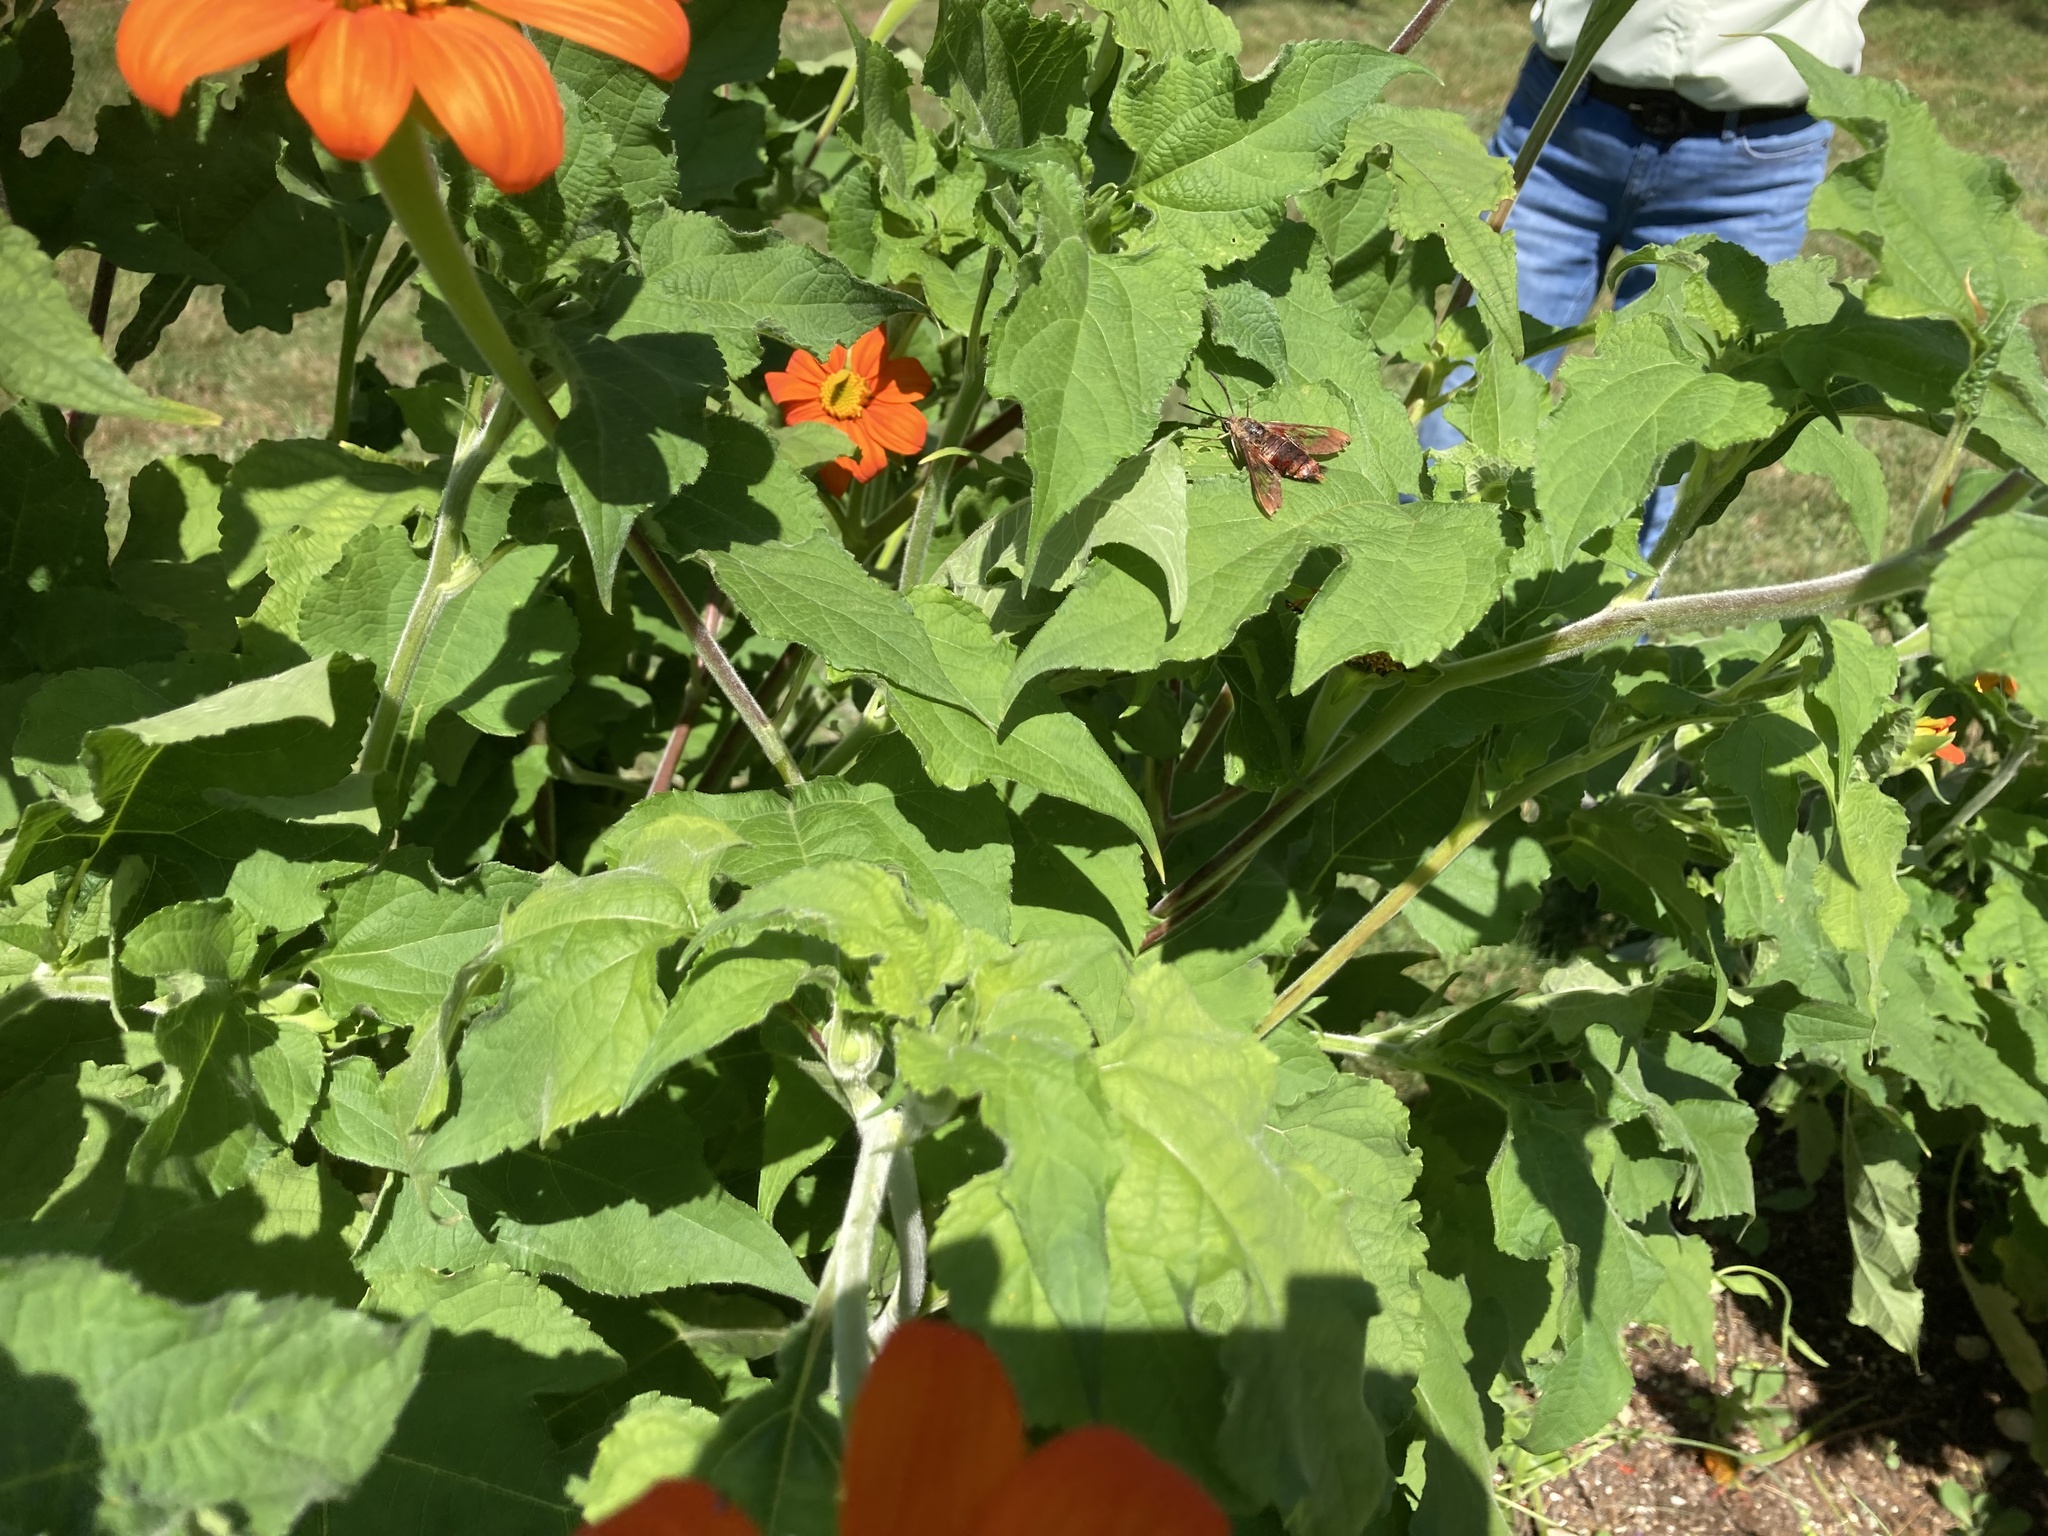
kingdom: Animalia
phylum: Arthropoda
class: Insecta
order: Lepidoptera
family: Sphingidae
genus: Hemaris
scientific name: Hemaris thysbe
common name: Common clear-wing
